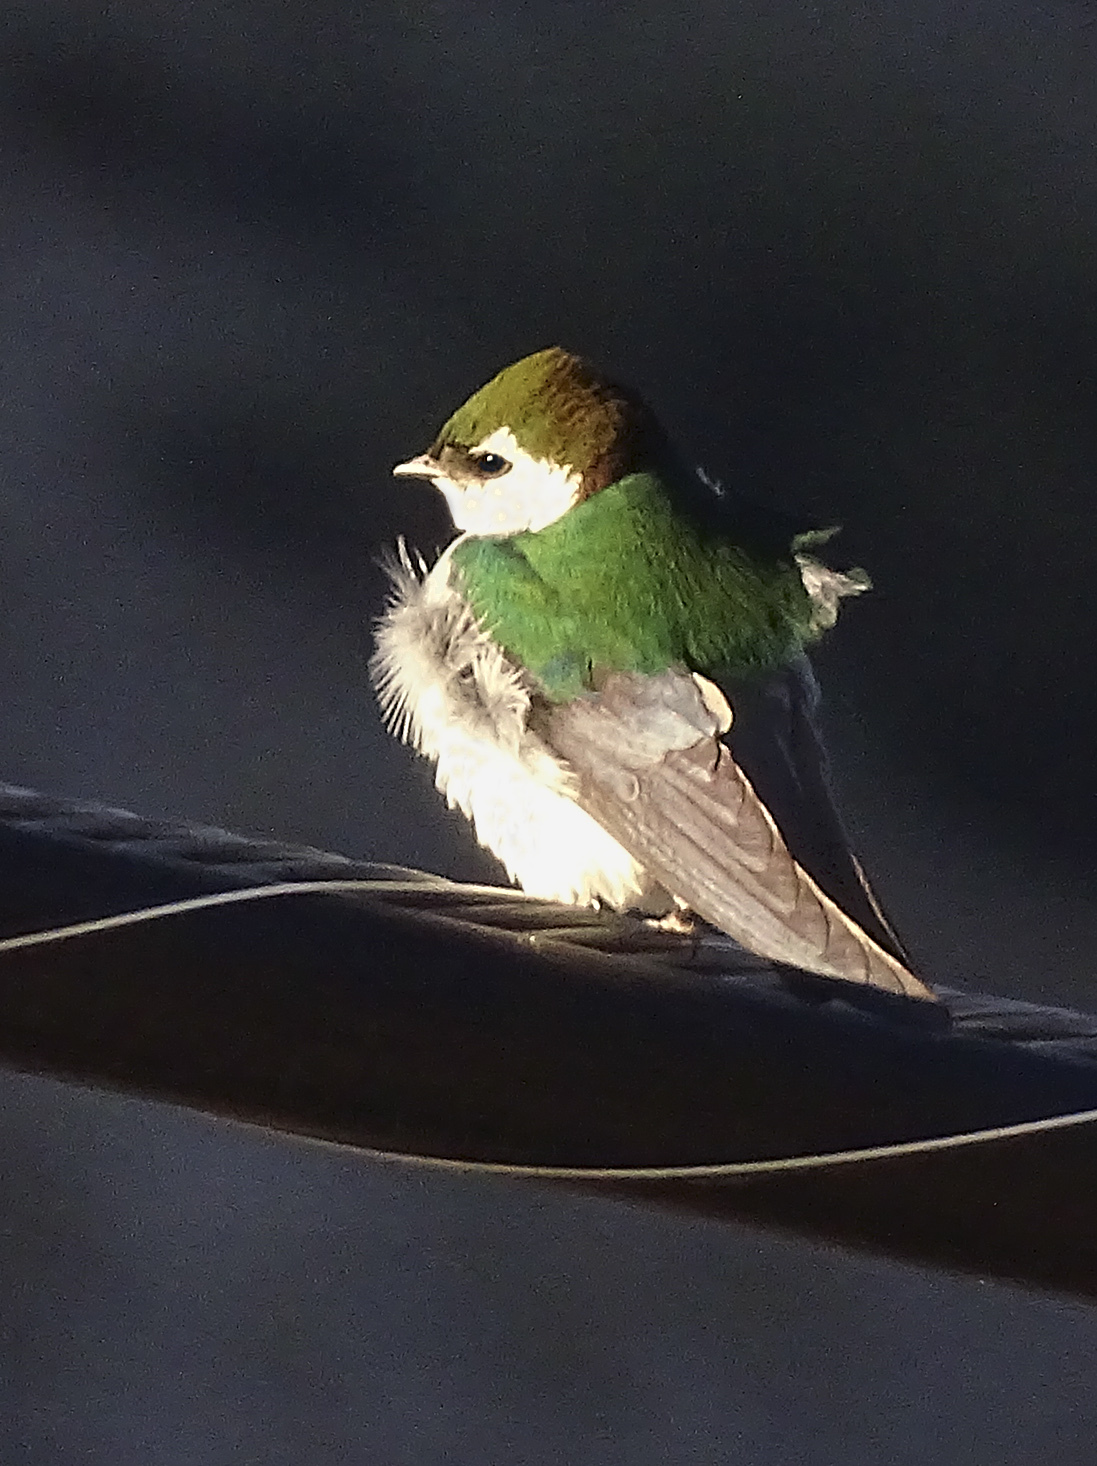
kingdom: Animalia
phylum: Chordata
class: Aves
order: Passeriformes
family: Hirundinidae
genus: Tachycineta
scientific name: Tachycineta thalassina
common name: Violet-green swallow
